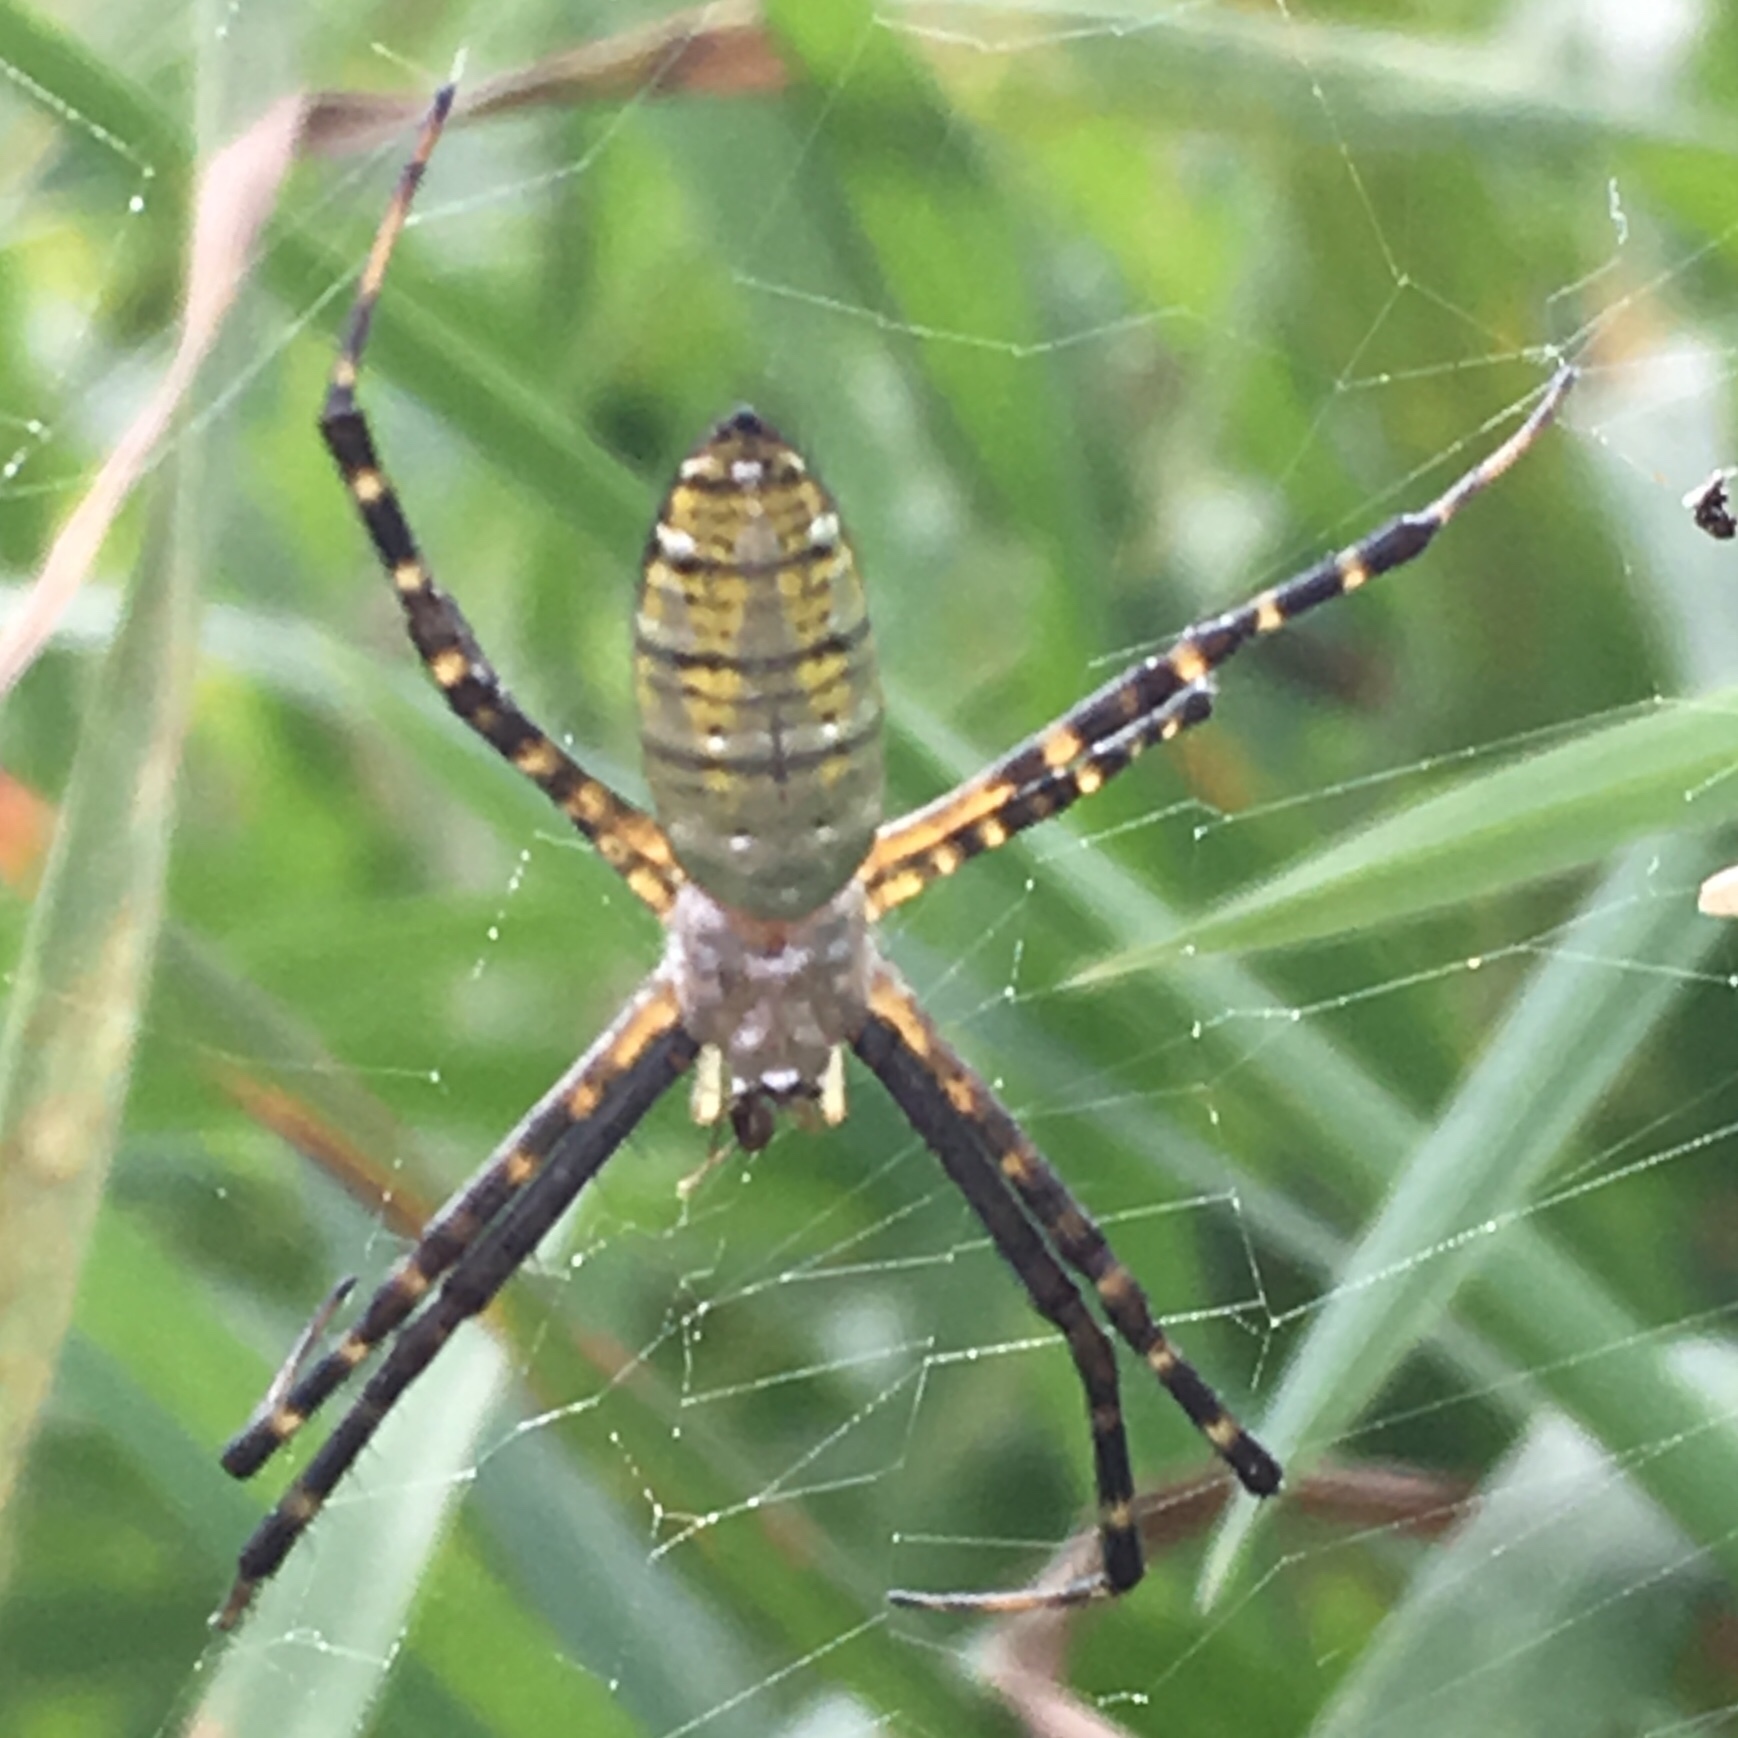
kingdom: Animalia
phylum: Arthropoda
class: Arachnida
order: Araneae
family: Araneidae
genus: Argiope
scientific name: Argiope trifasciata
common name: Banded garden spider
